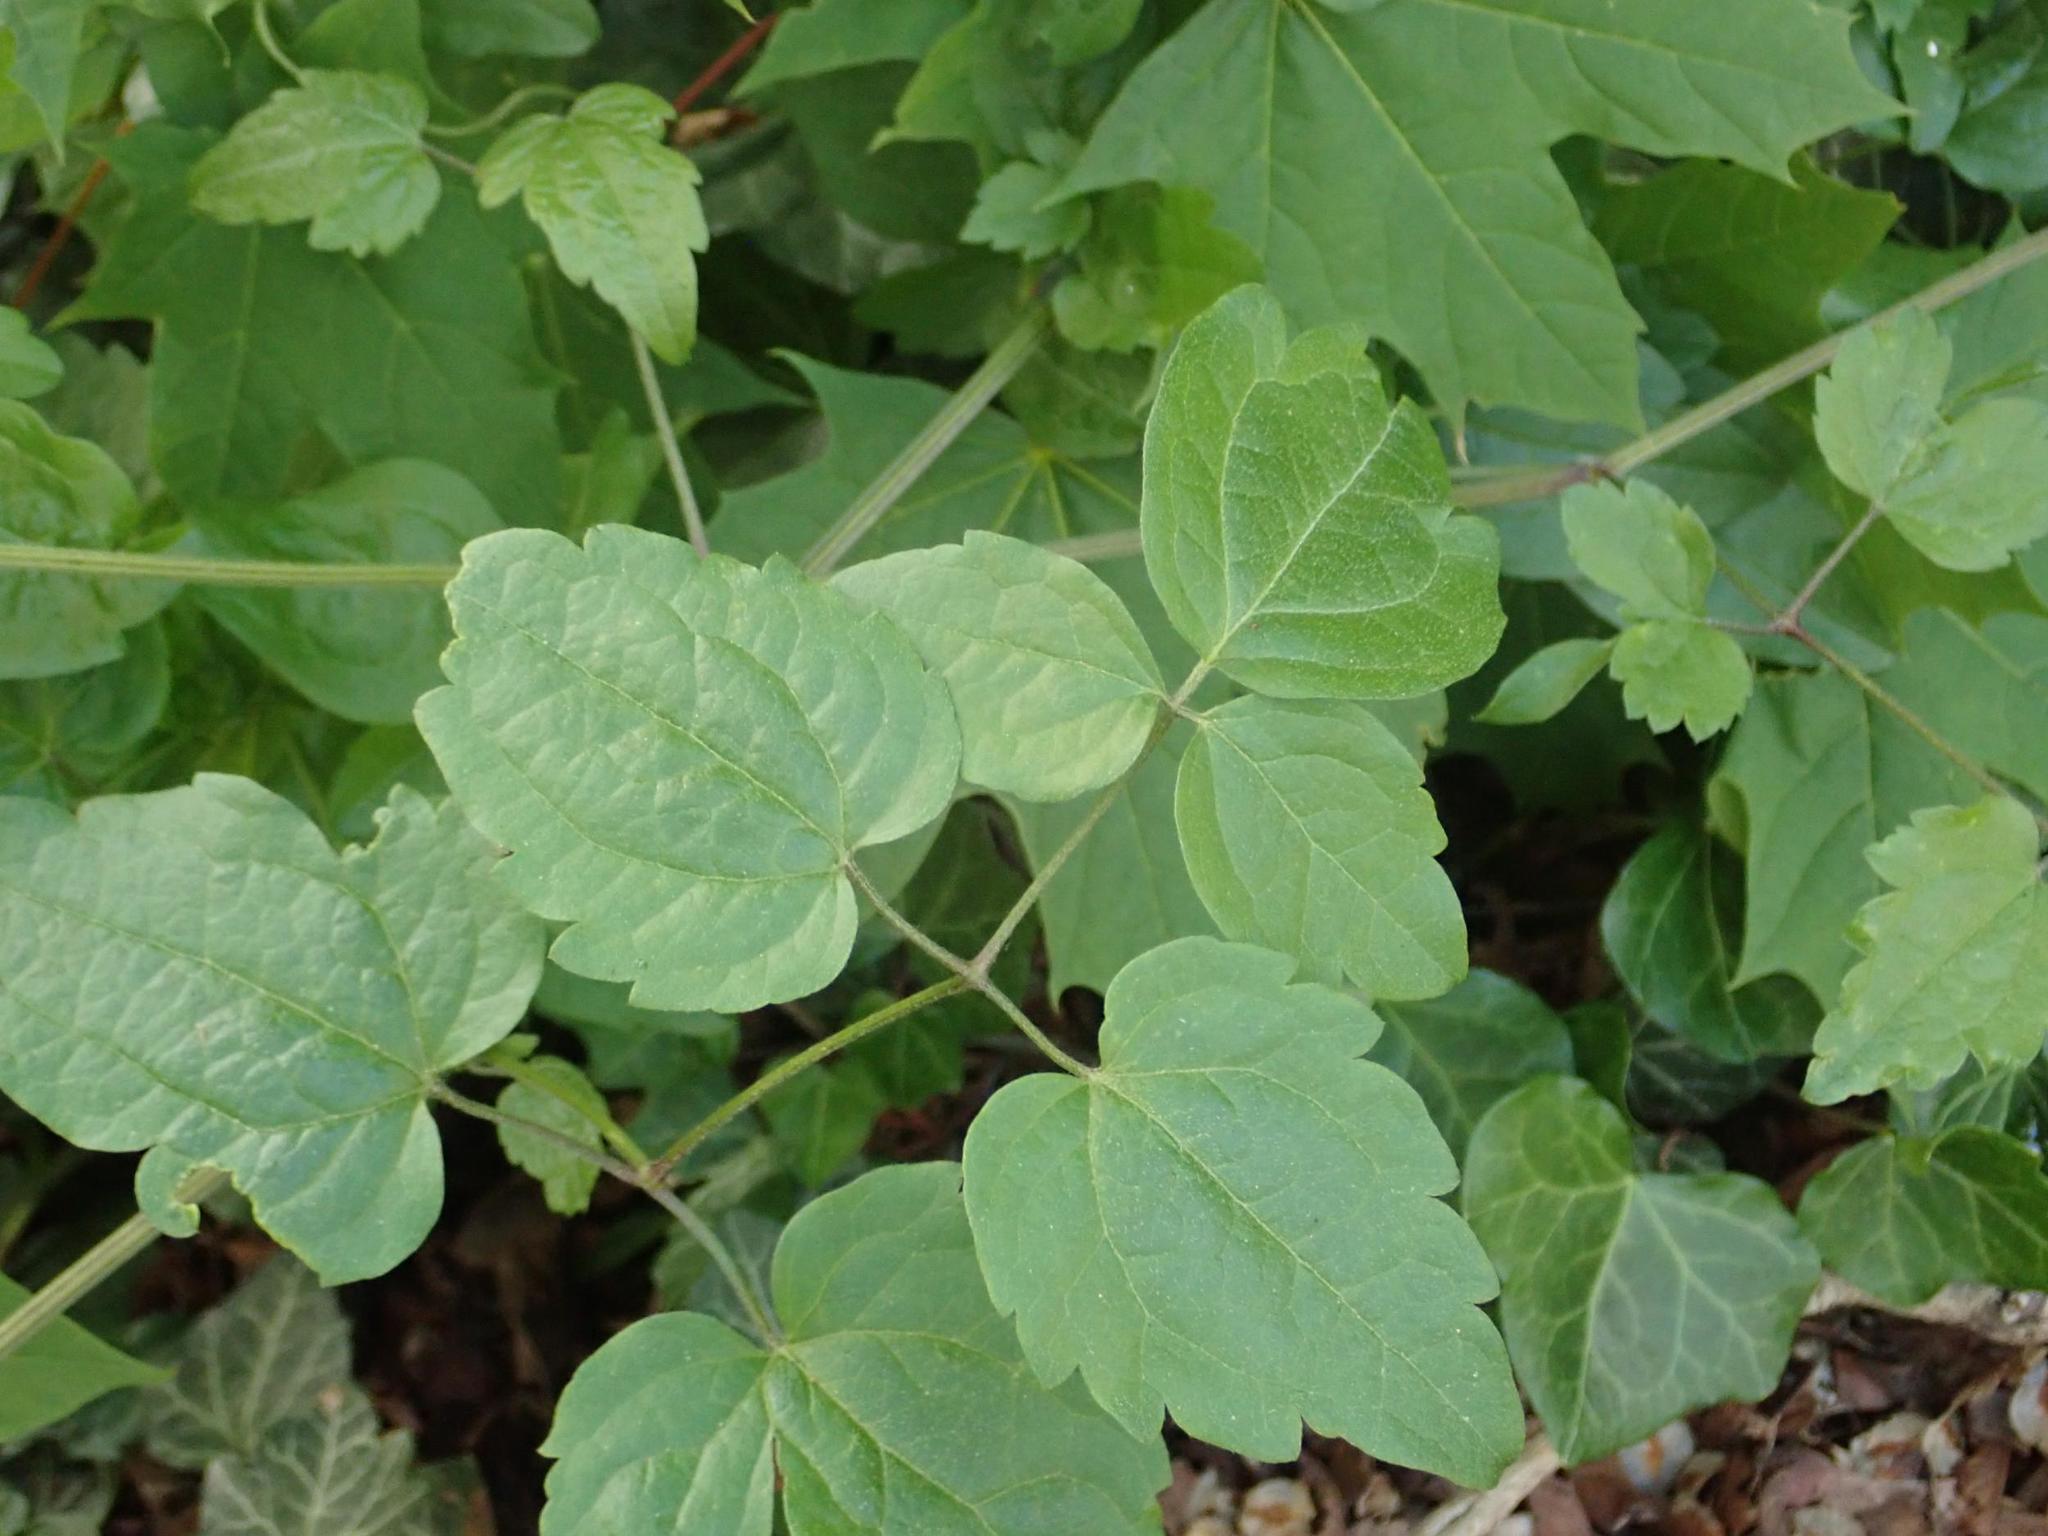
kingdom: Plantae
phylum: Tracheophyta
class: Magnoliopsida
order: Ranunculales
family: Ranunculaceae
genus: Clematis
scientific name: Clematis vitalba
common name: Evergreen clematis
